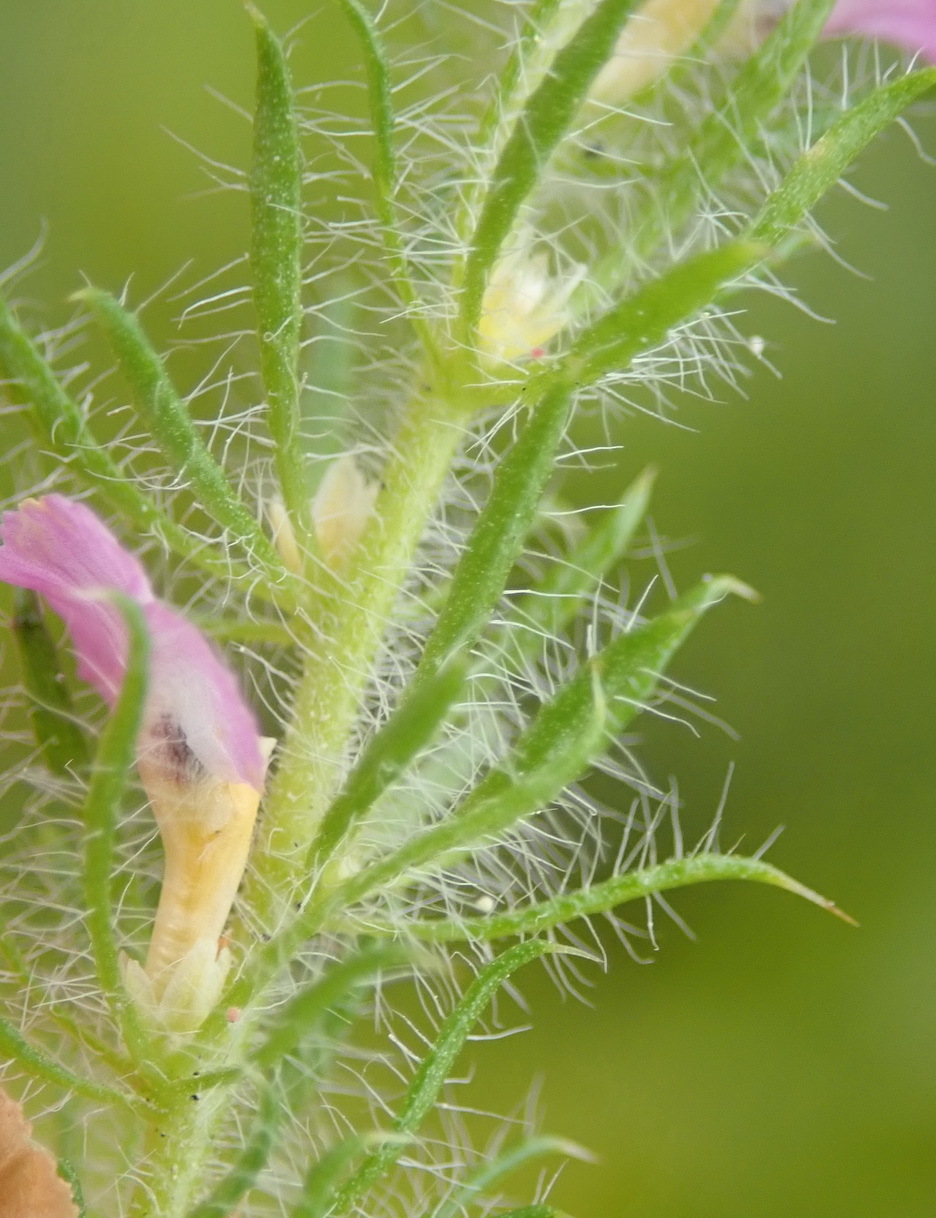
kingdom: Plantae
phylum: Tracheophyta
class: Magnoliopsida
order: Fabales
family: Polygalaceae
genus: Muraltia
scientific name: Muraltia ciliaris
